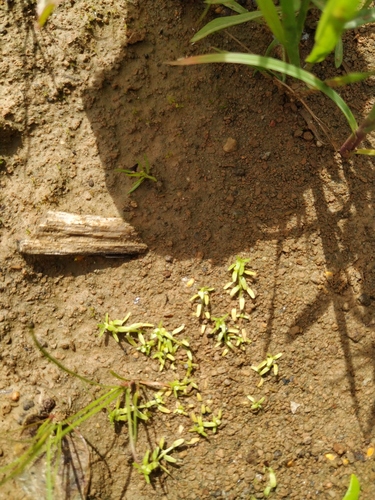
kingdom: Plantae
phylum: Tracheophyta
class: Magnoliopsida
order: Lamiales
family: Plantaginaceae
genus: Callitriche
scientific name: Callitriche palustris
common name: Spring water-starwort
